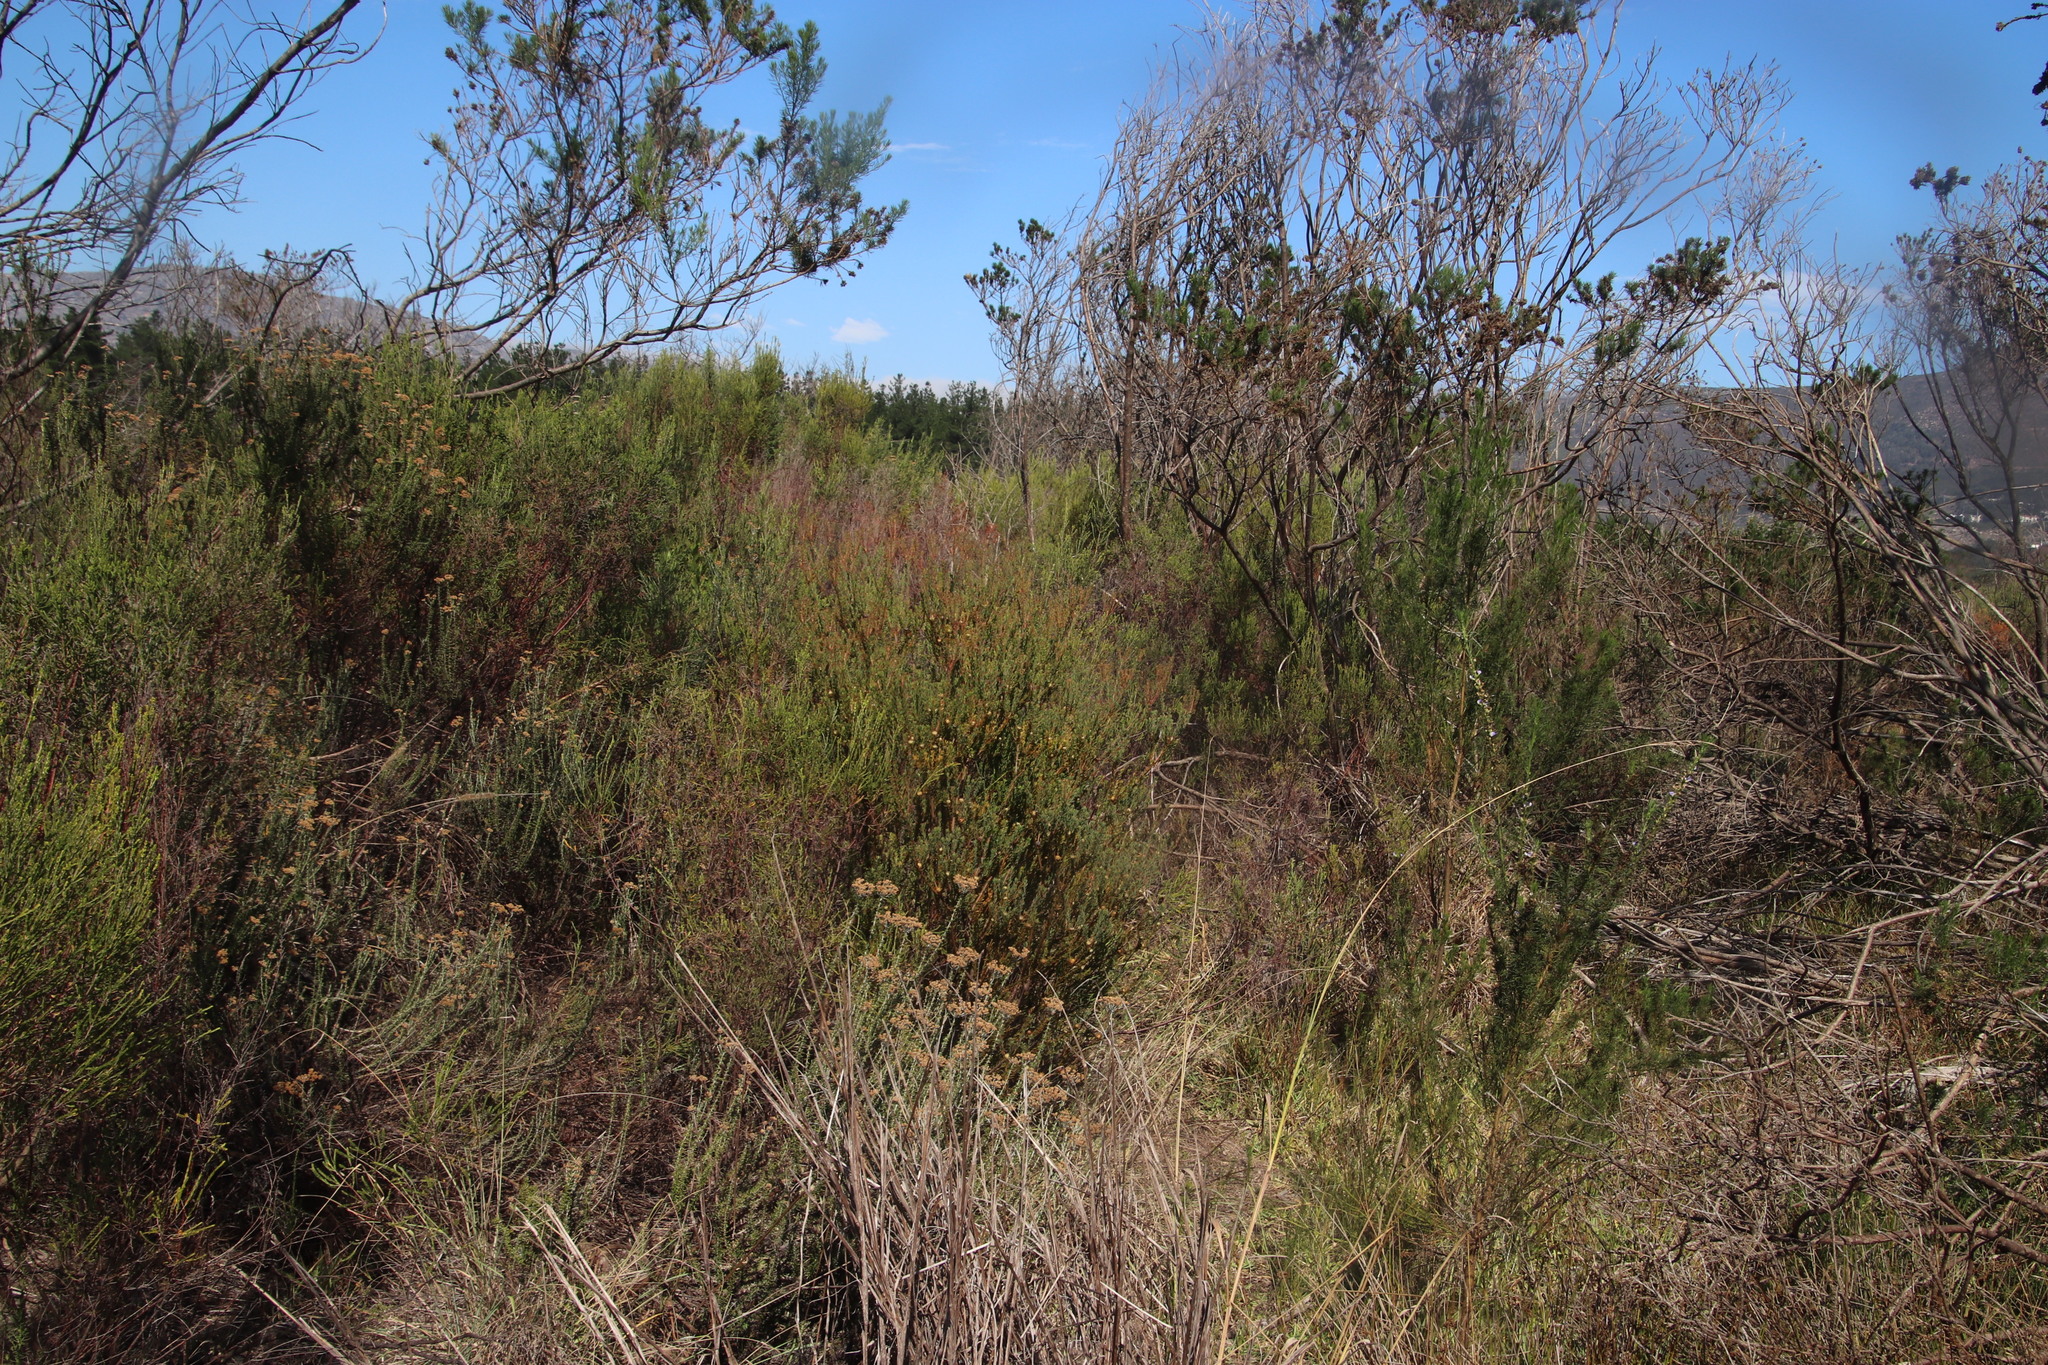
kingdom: Plantae
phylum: Tracheophyta
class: Magnoliopsida
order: Proteales
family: Proteaceae
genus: Leucadendron
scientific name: Leucadendron levisanus
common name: Cape flats conebush
